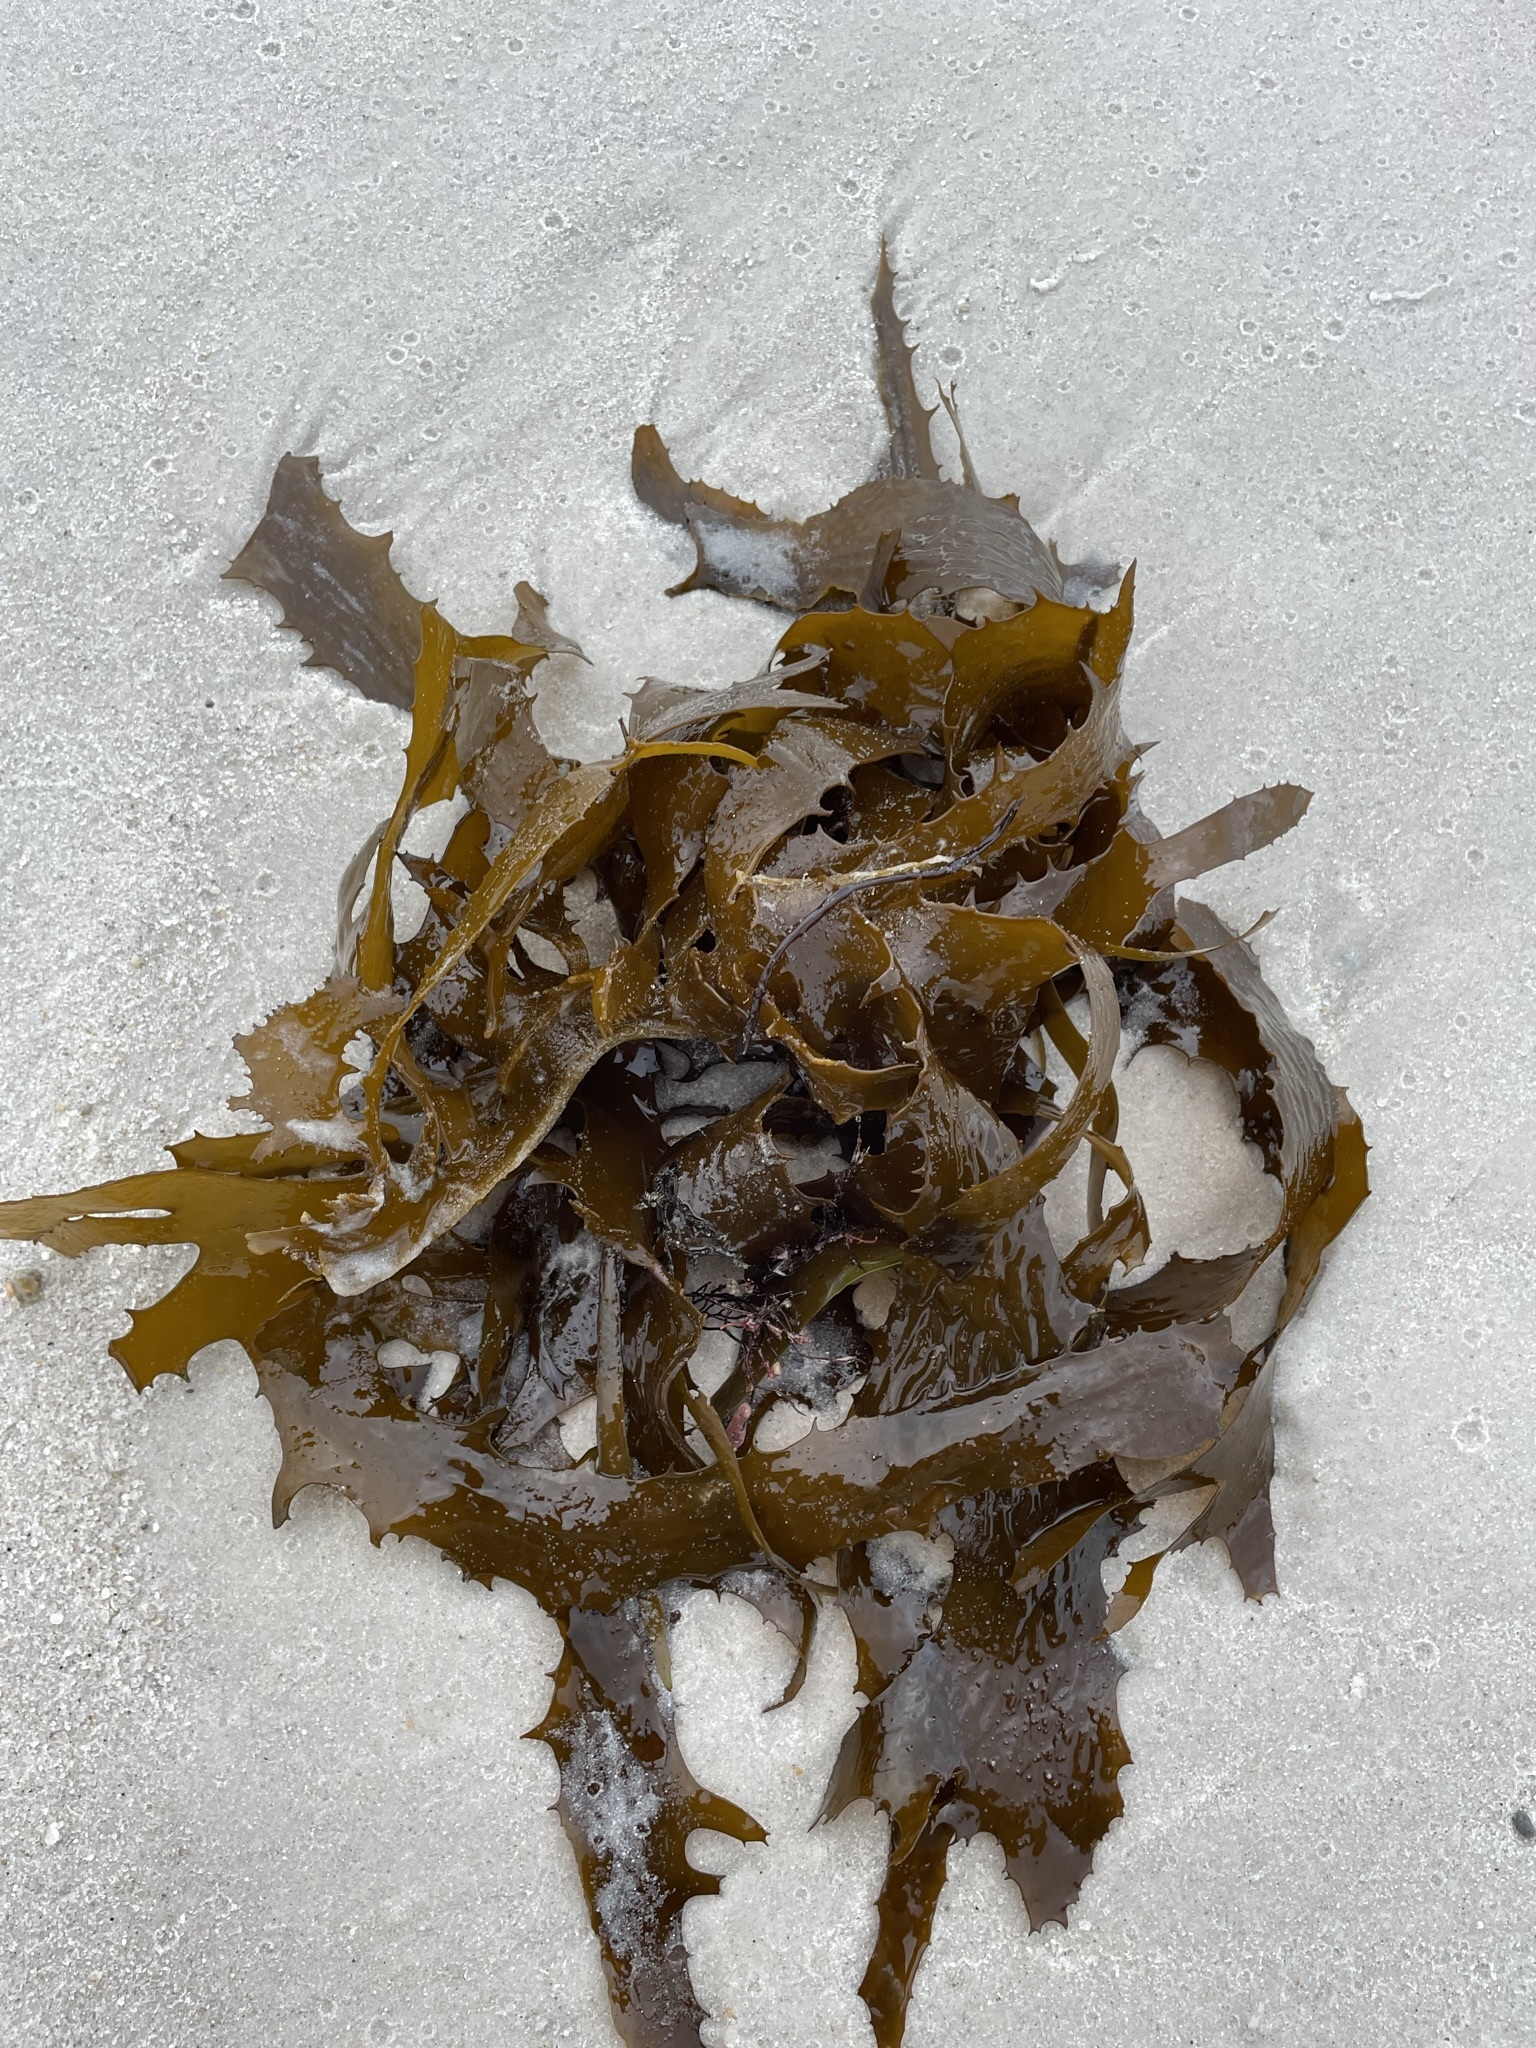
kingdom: Chromista
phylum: Ochrophyta
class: Phaeophyceae
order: Laminariales
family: Lessoniaceae
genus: Ecklonia
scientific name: Ecklonia radiata
